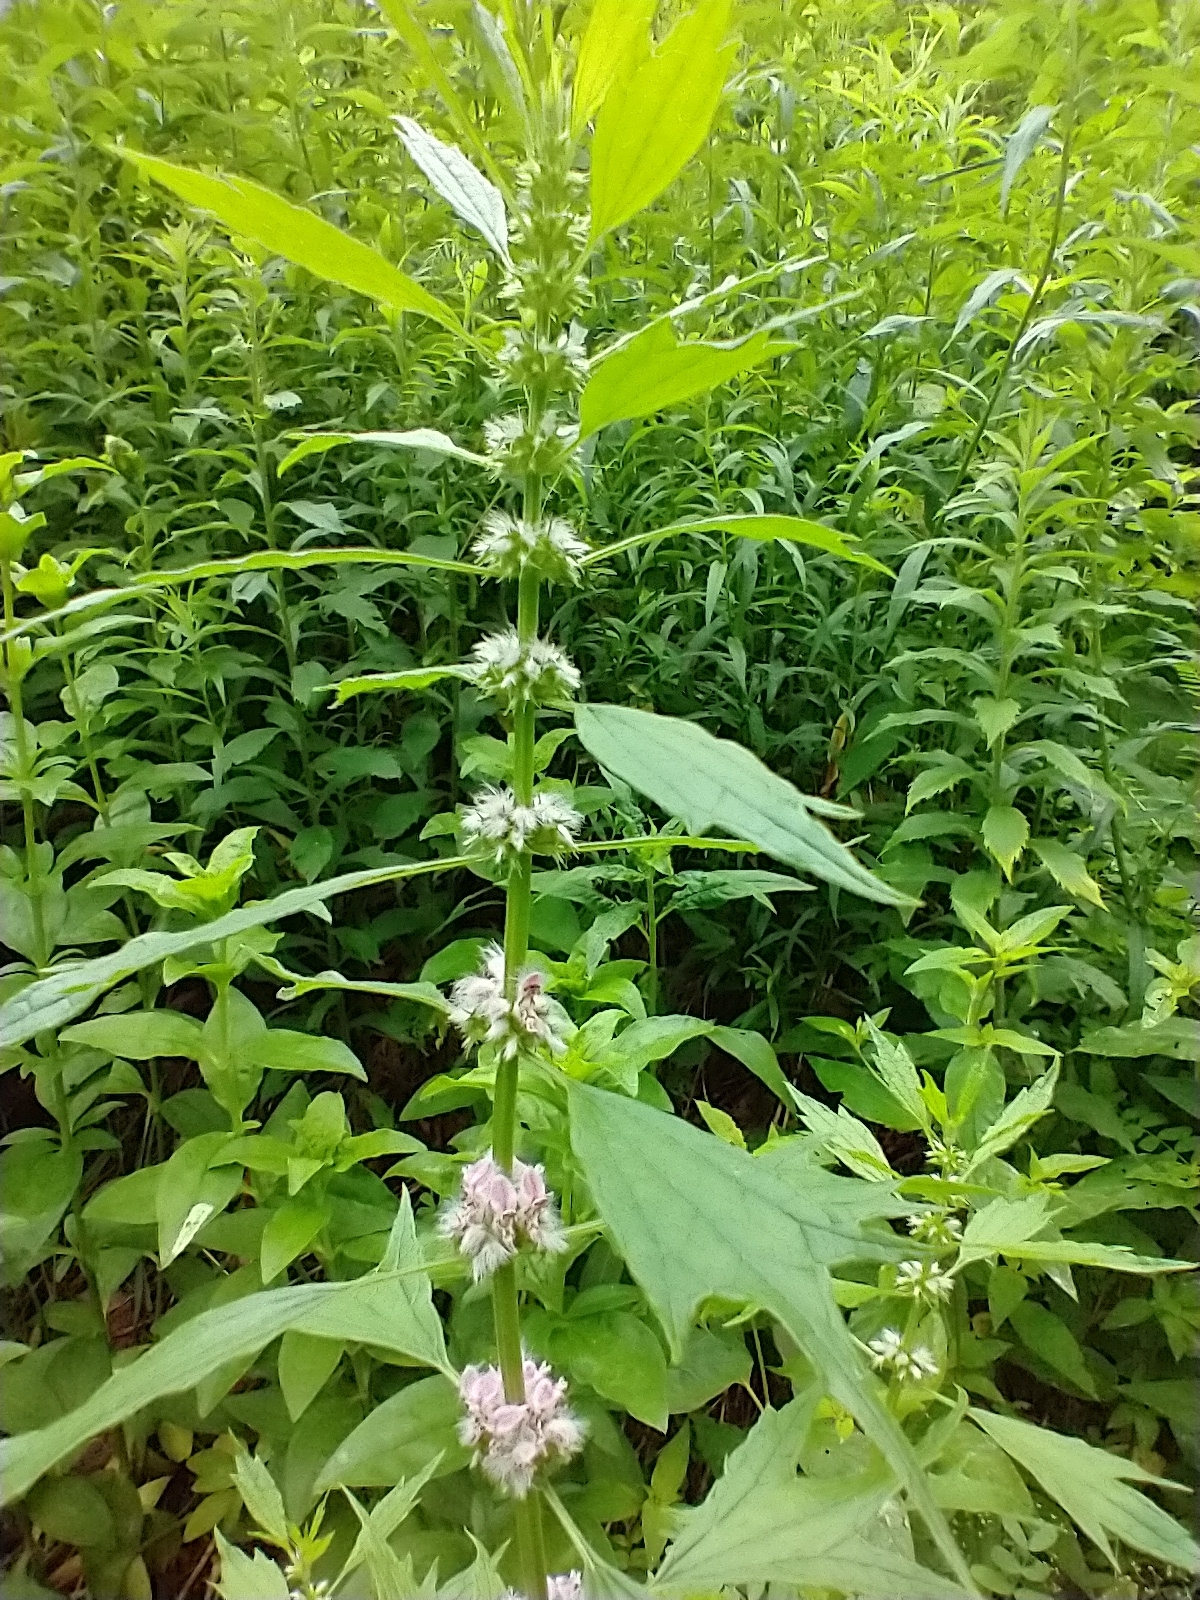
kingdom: Plantae
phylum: Tracheophyta
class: Magnoliopsida
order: Lamiales
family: Lamiaceae
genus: Leonurus
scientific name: Leonurus cardiaca
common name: Motherwort
